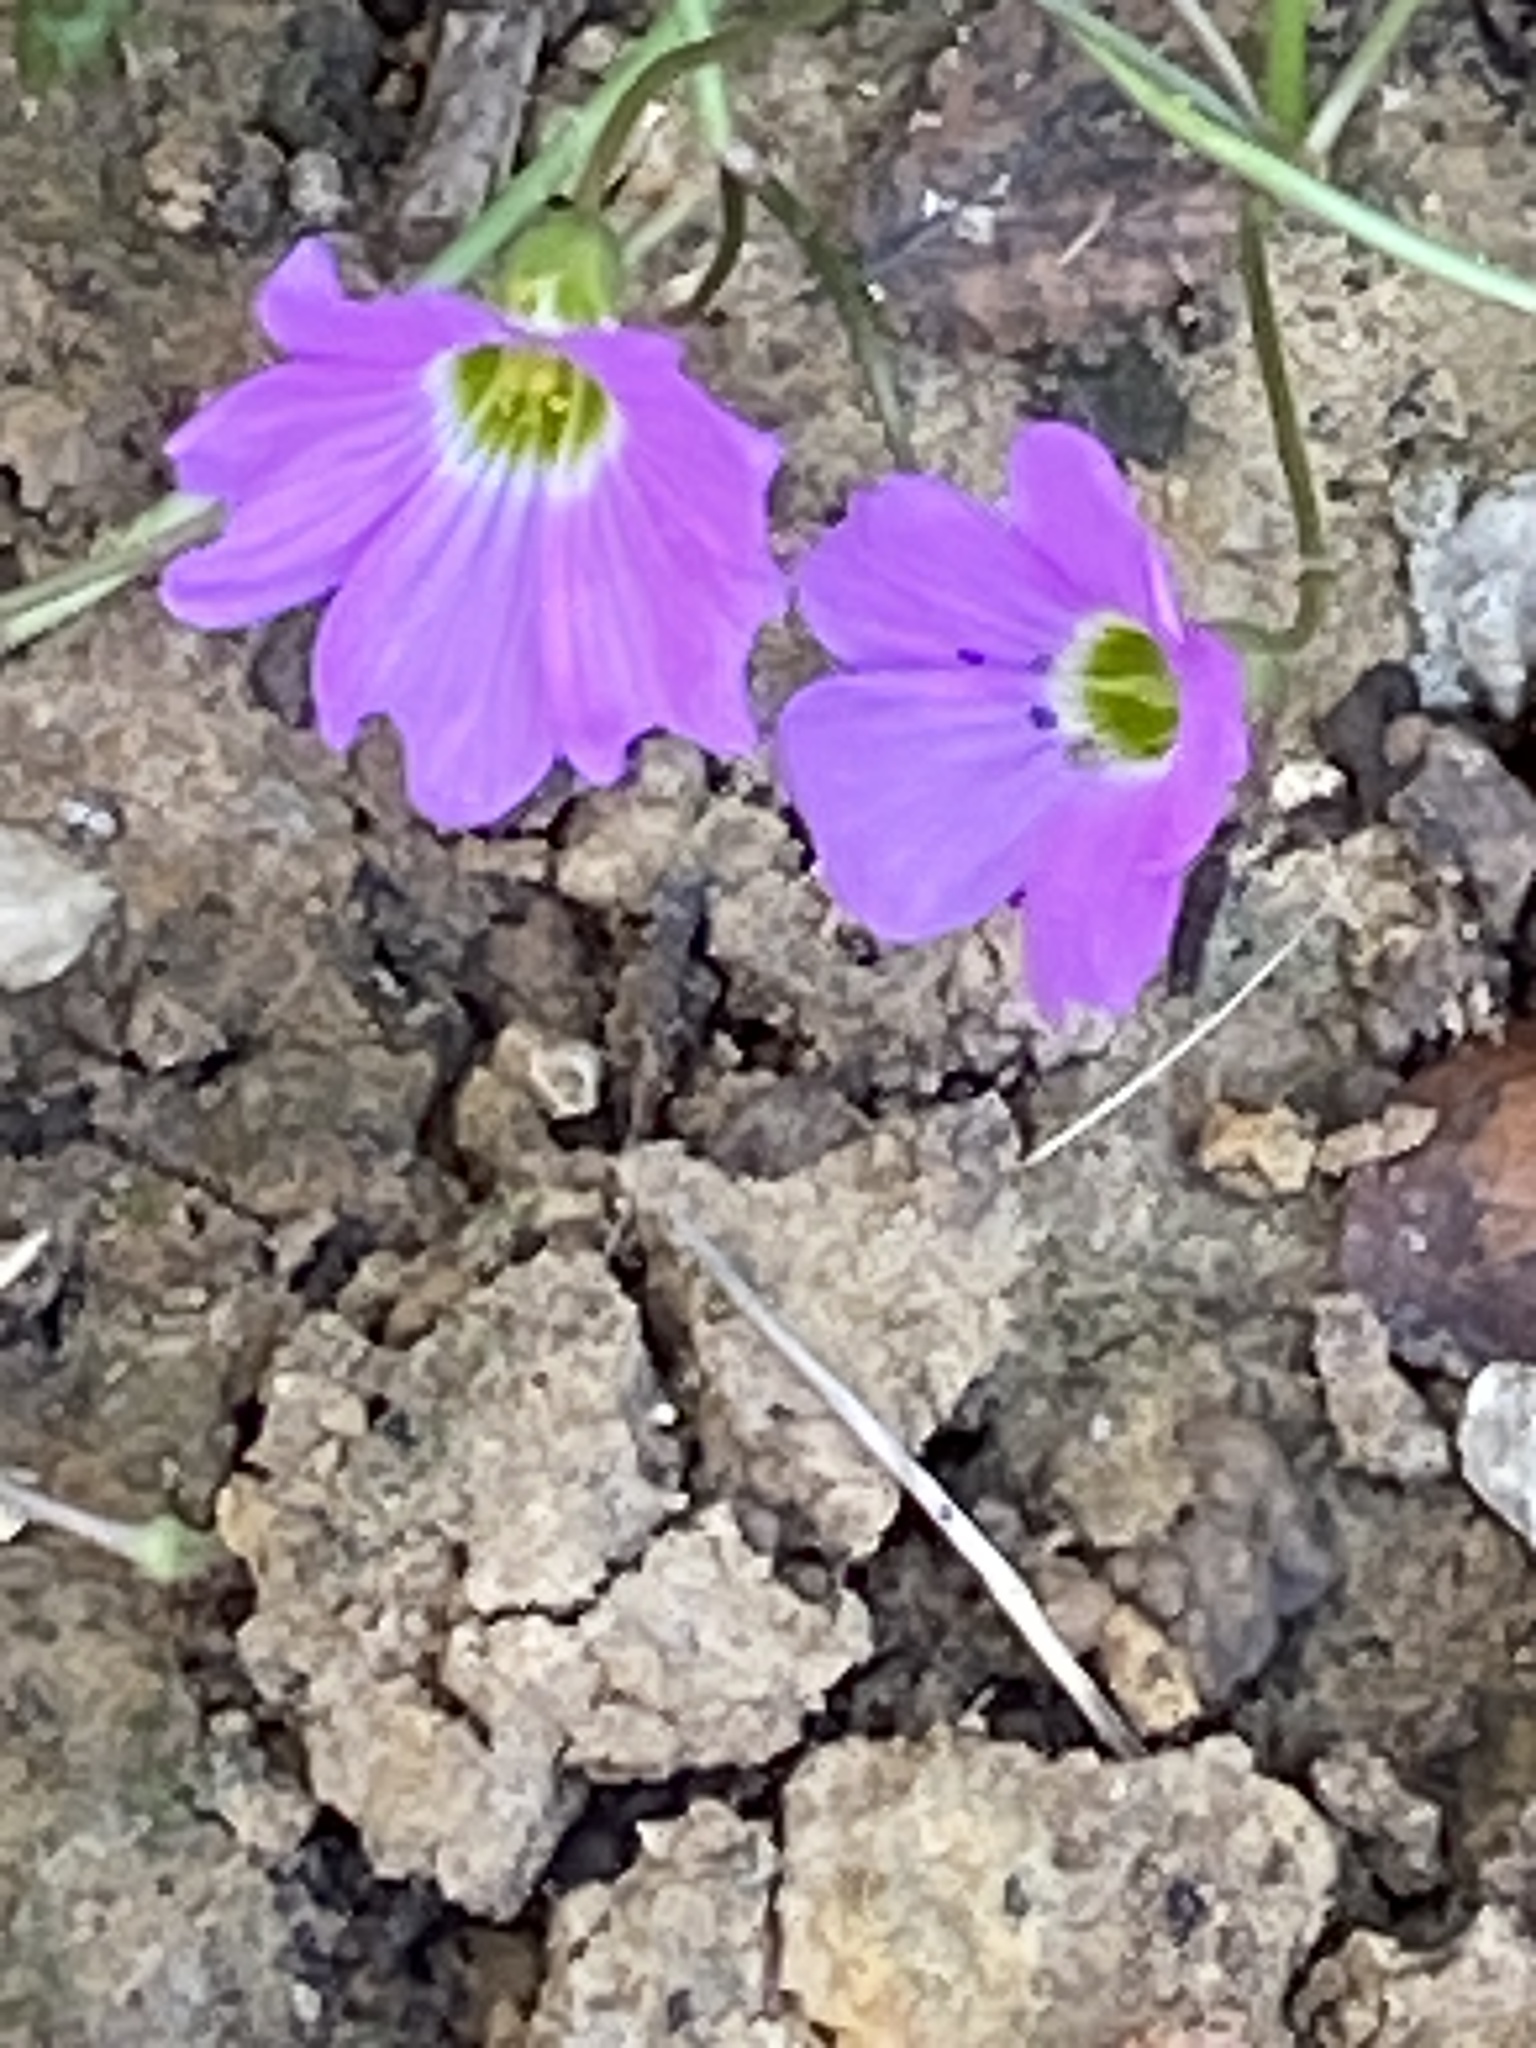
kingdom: Plantae
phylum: Tracheophyta
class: Magnoliopsida
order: Oxalidales
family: Oxalidaceae
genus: Oxalis
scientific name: Oxalis drummondii
